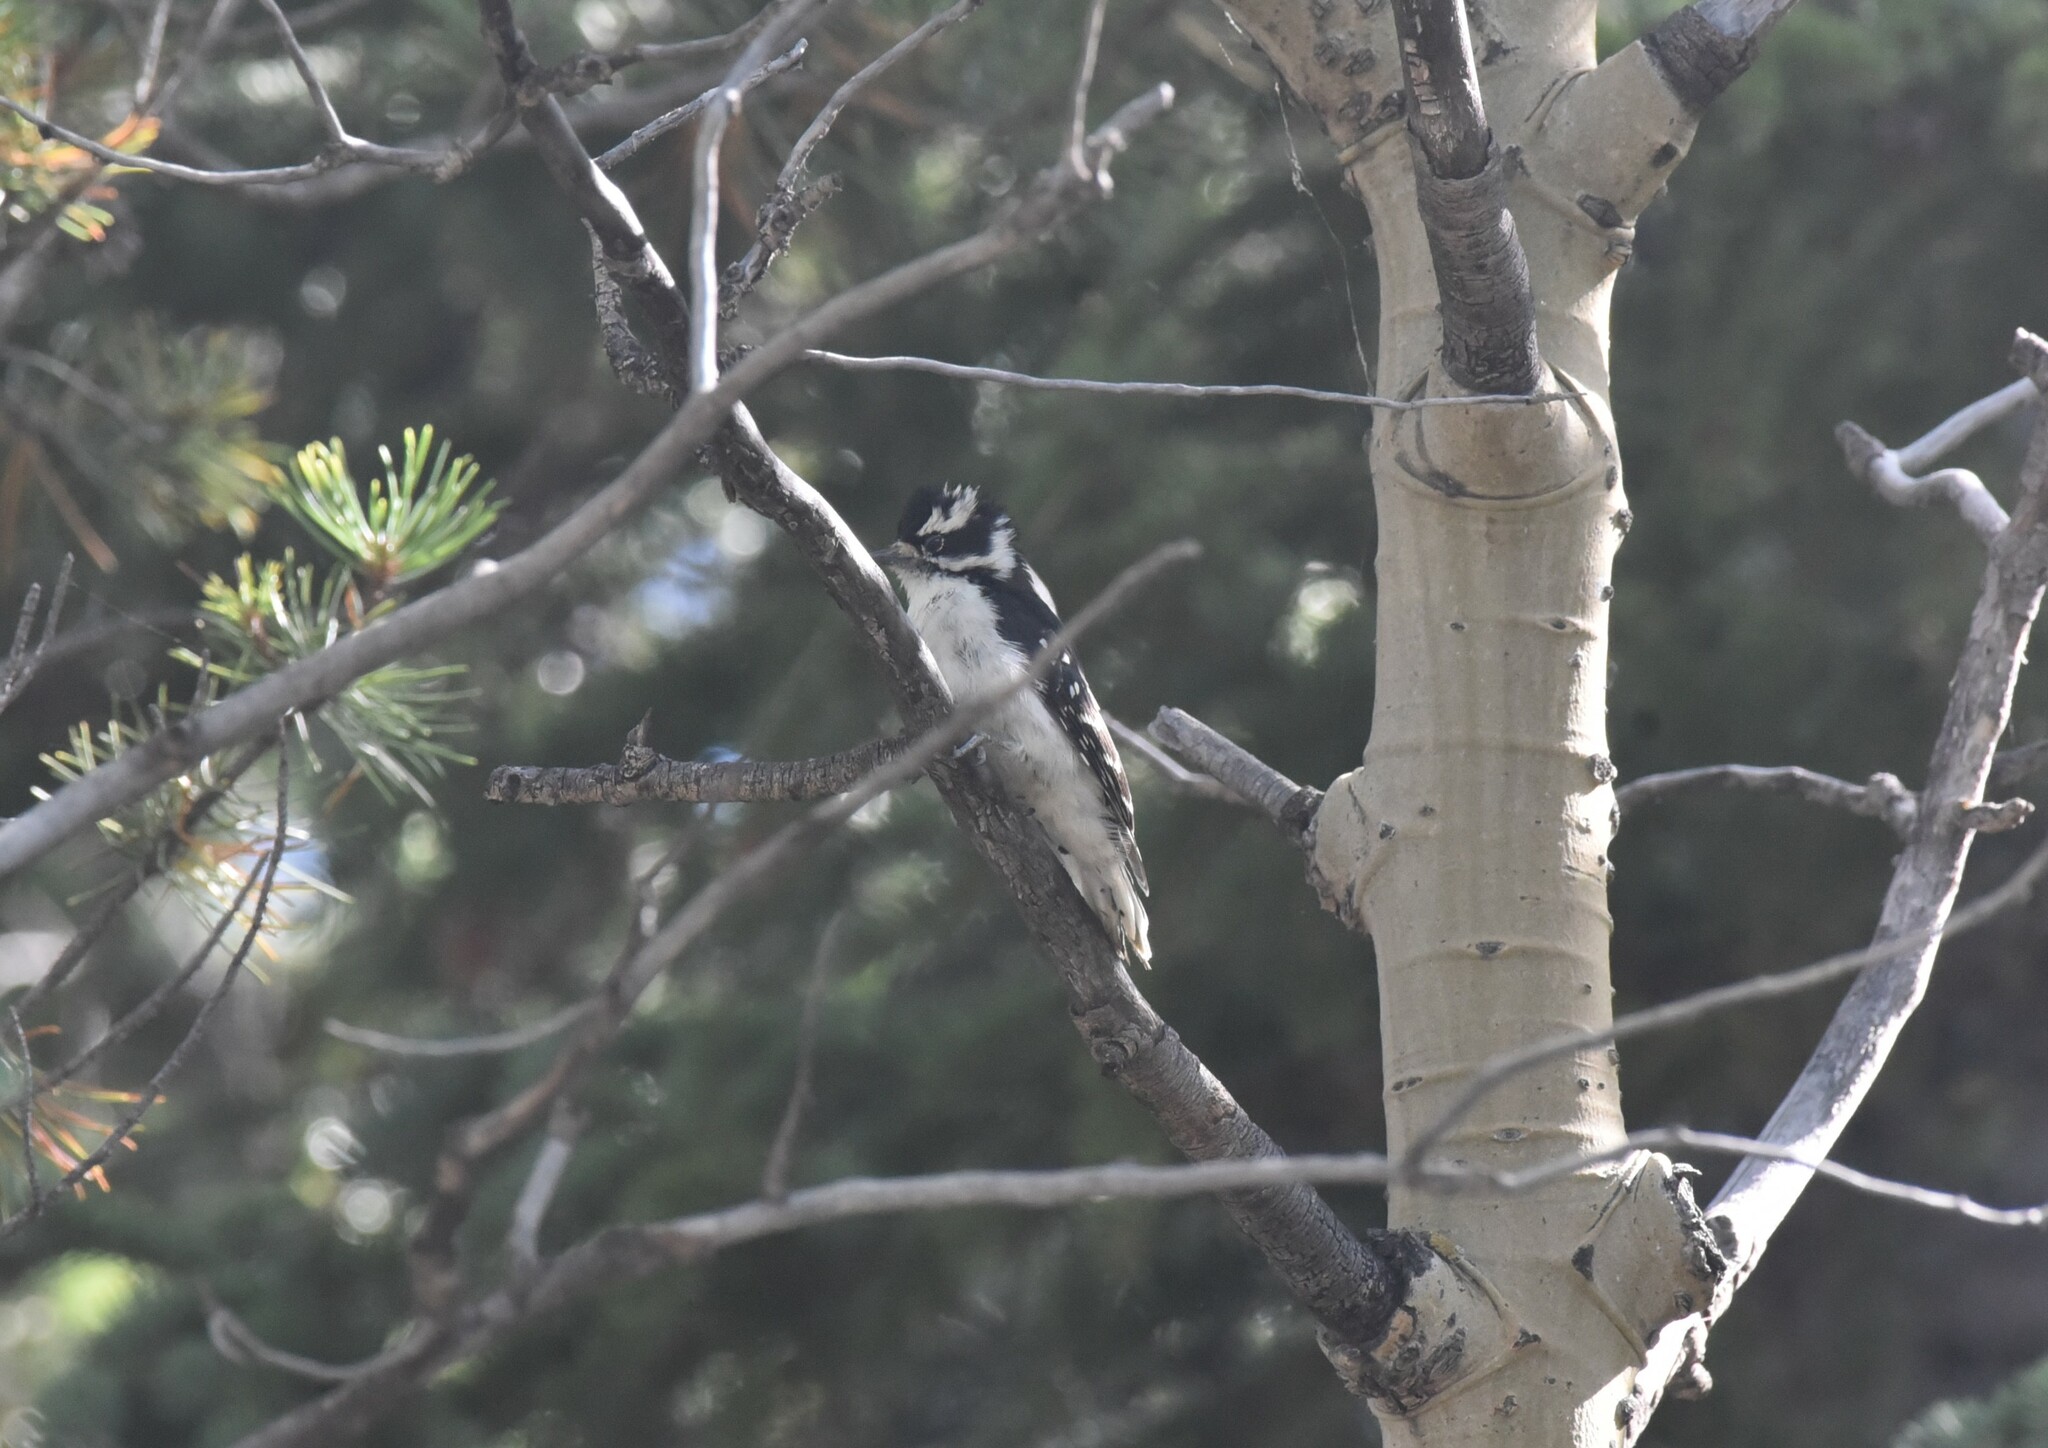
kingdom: Animalia
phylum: Chordata
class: Aves
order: Piciformes
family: Picidae
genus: Dryobates
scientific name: Dryobates pubescens
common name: Downy woodpecker
